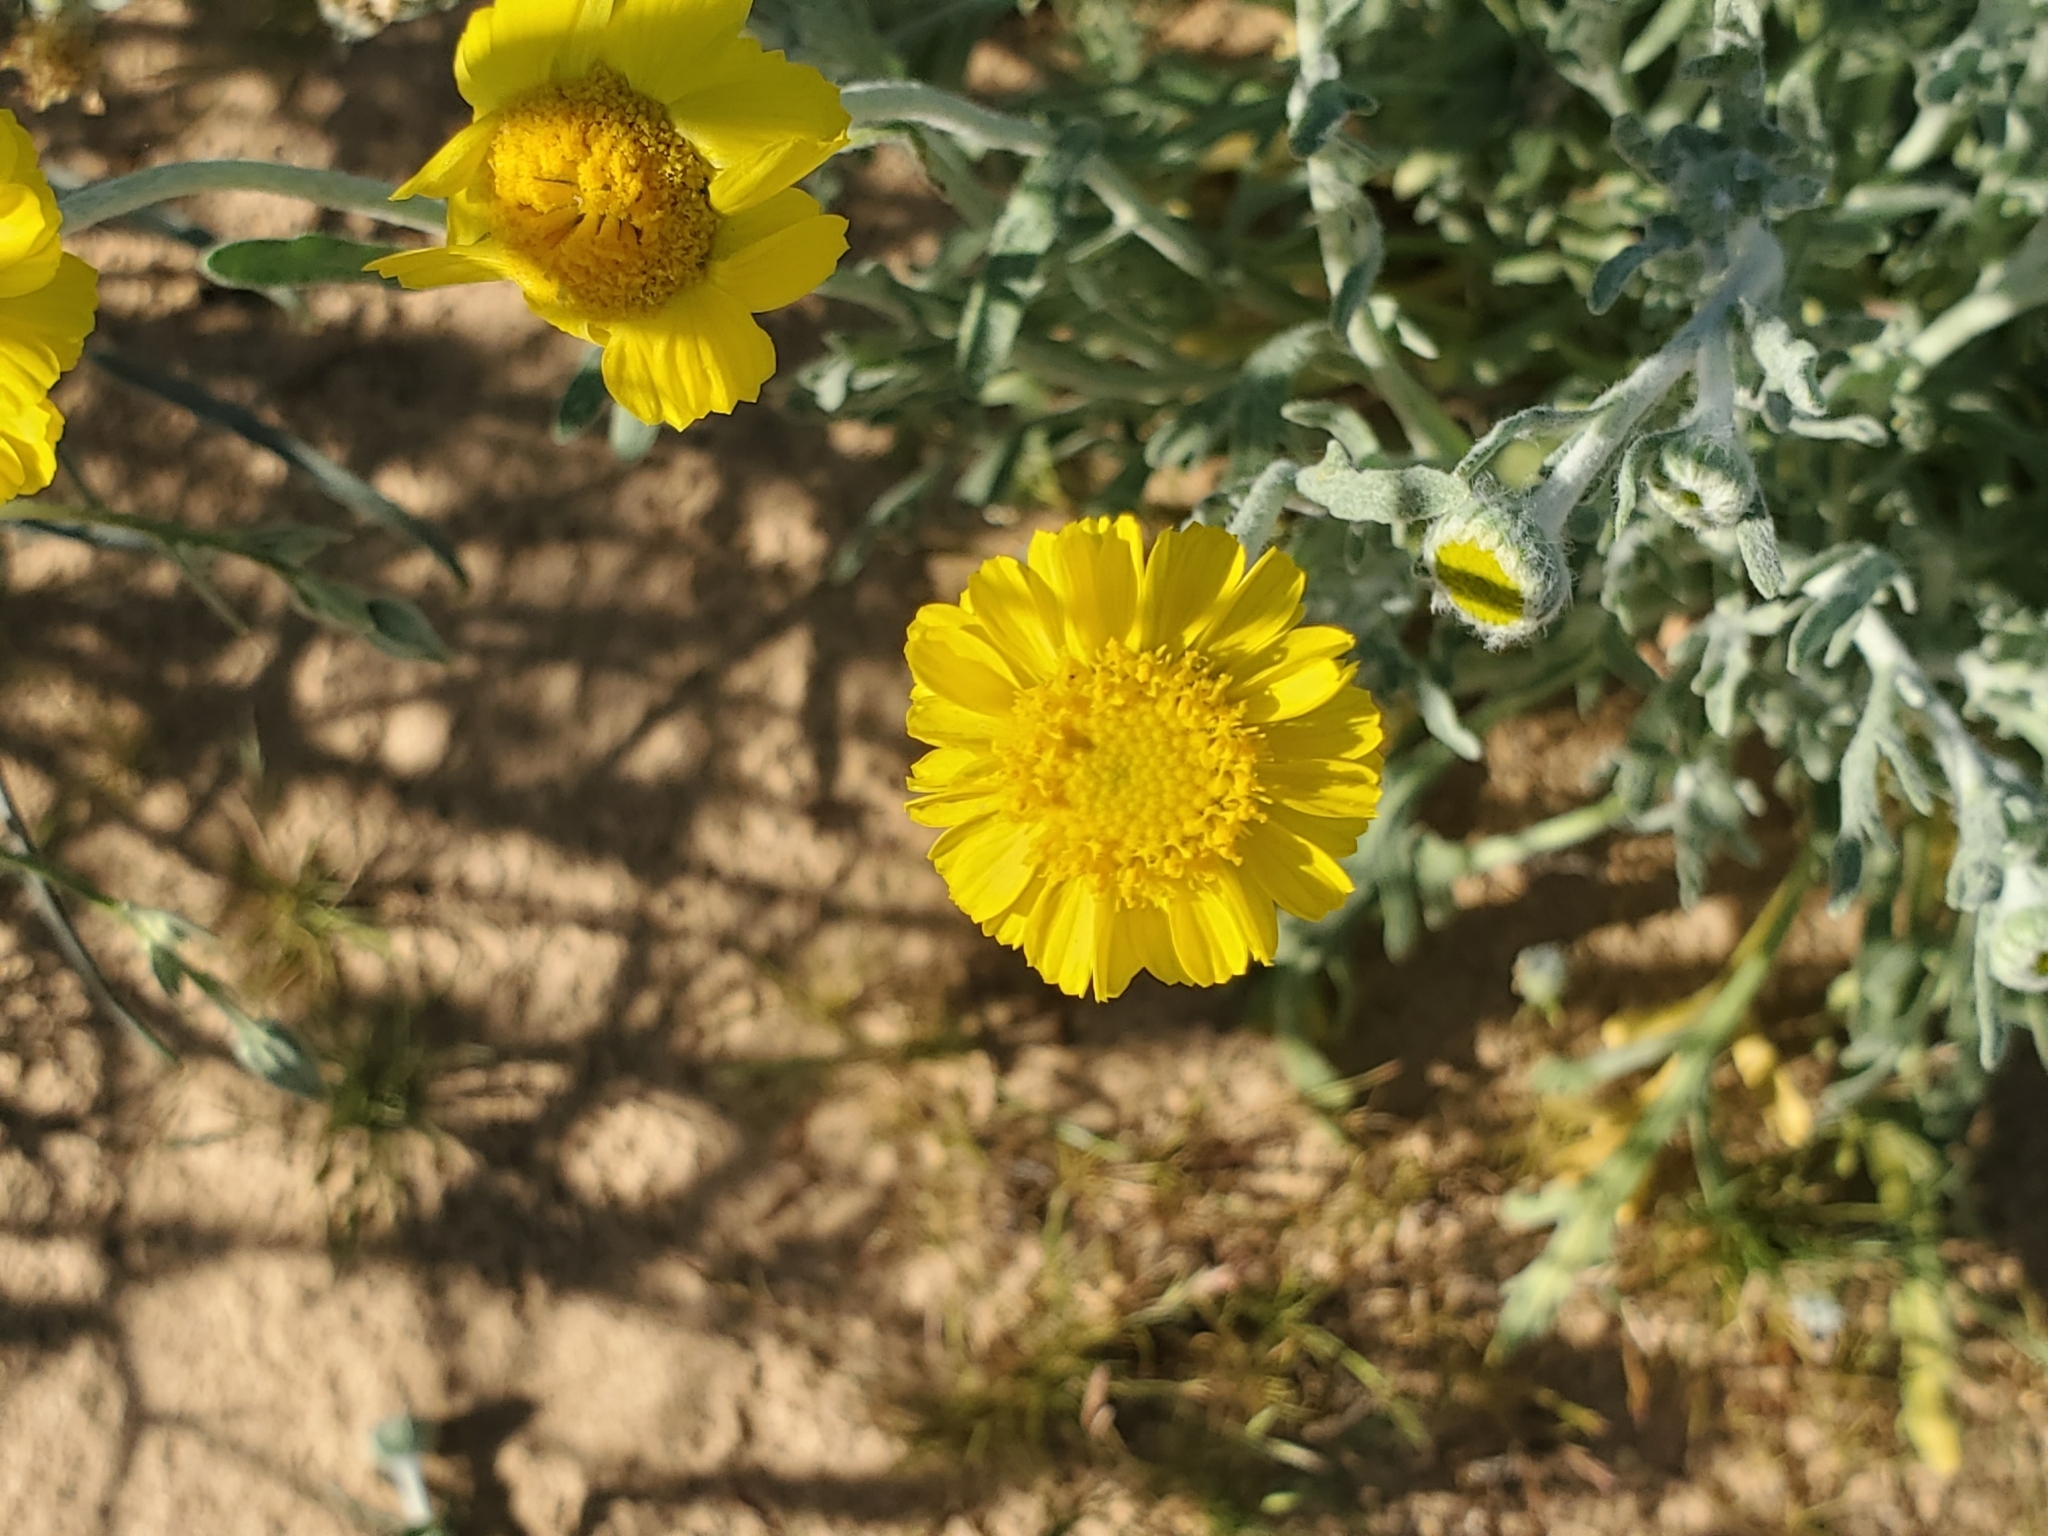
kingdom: Plantae
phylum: Tracheophyta
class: Magnoliopsida
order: Asterales
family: Asteraceae
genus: Baileya
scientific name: Baileya pleniradiata
